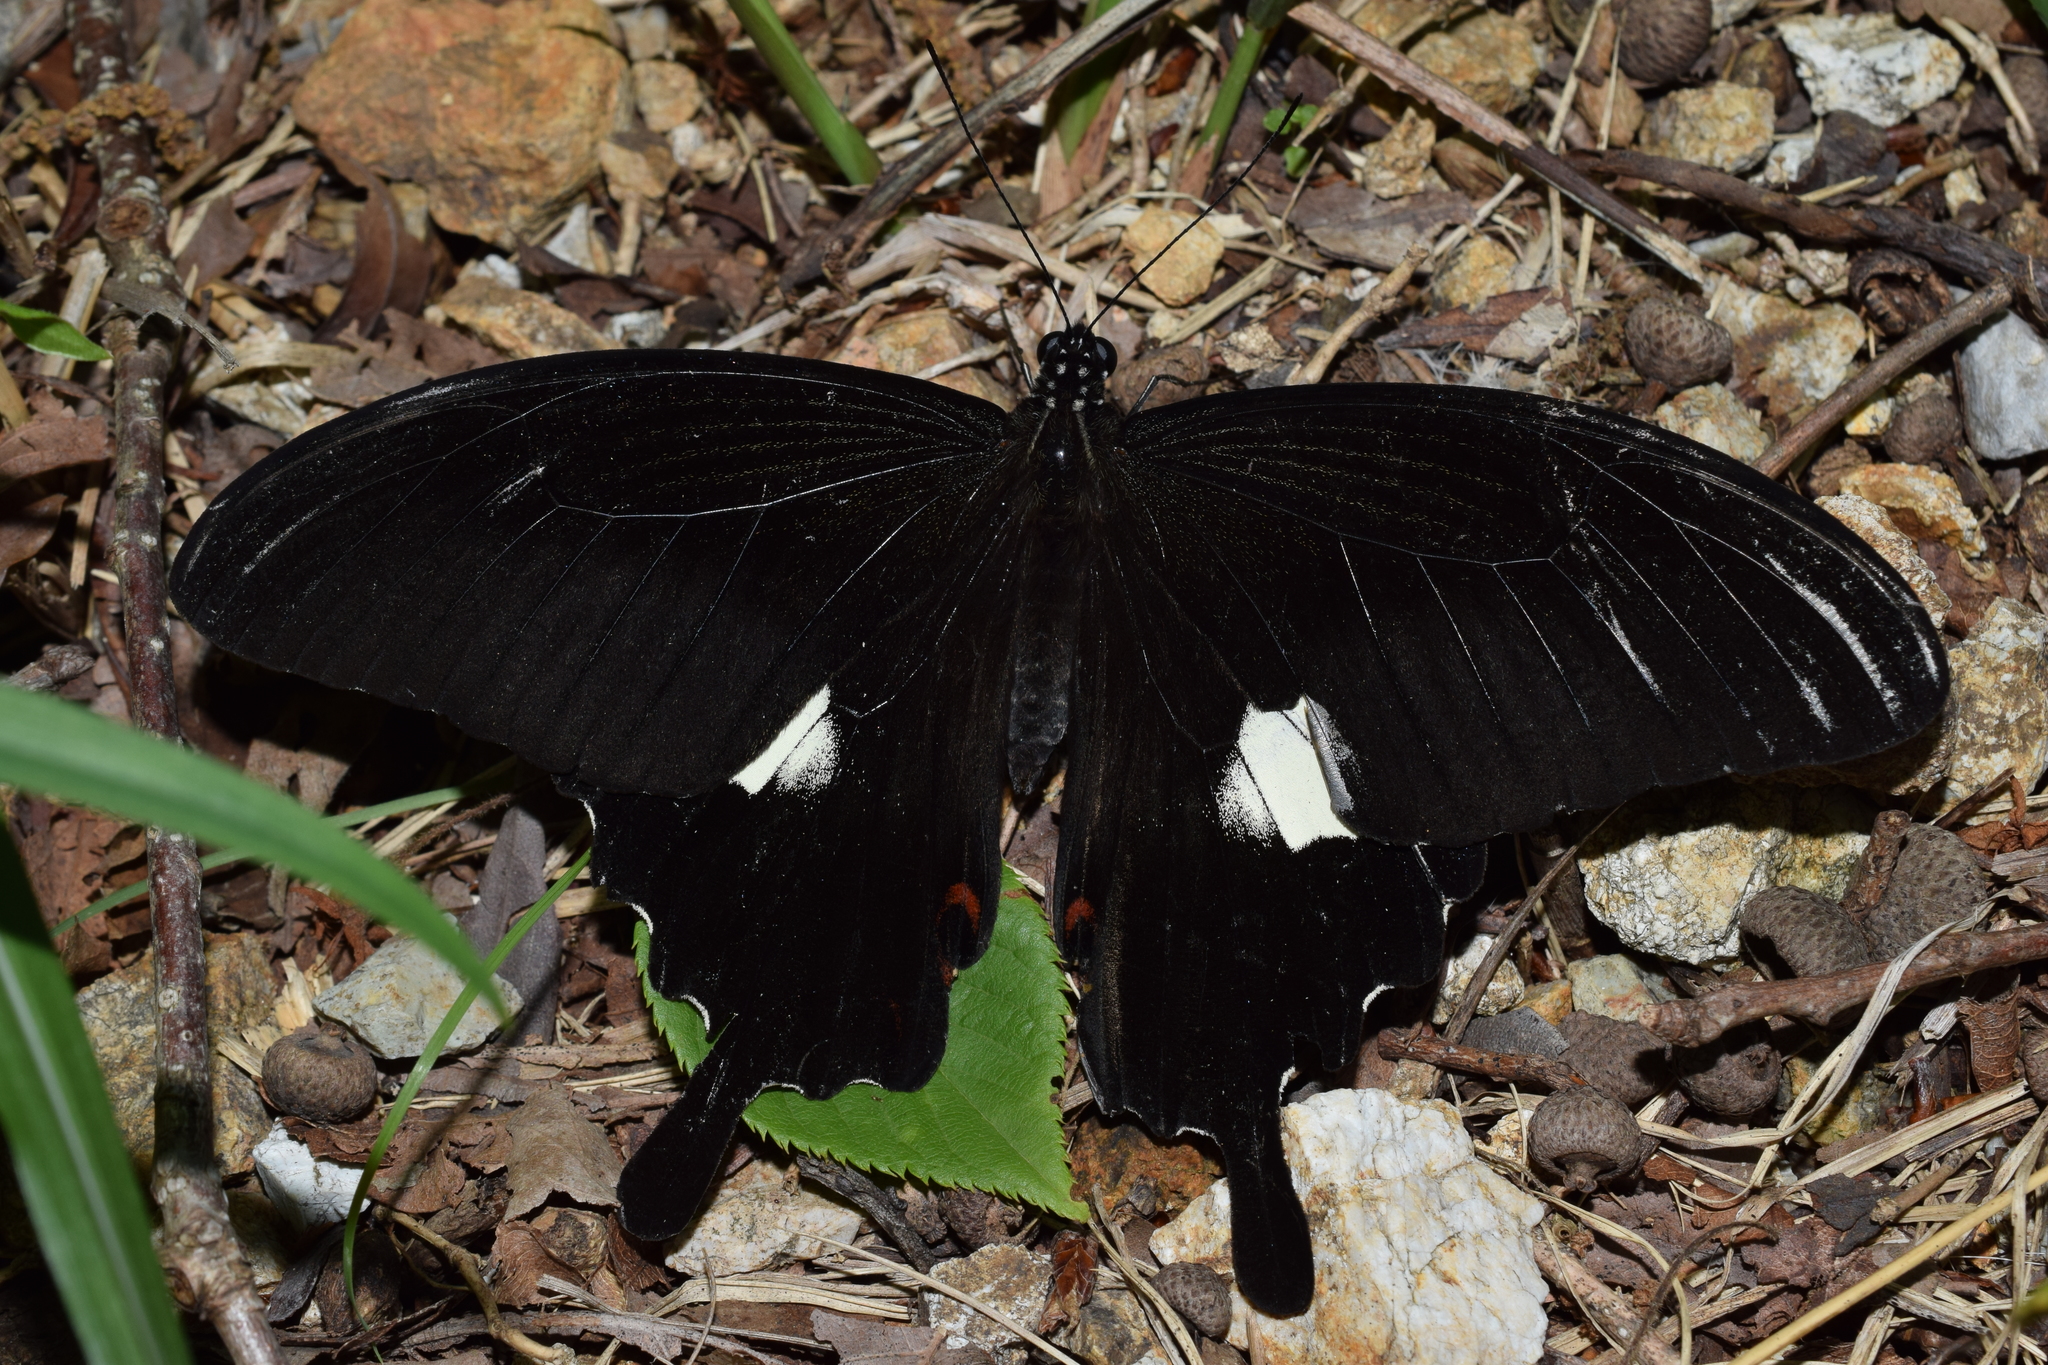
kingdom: Animalia
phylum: Arthropoda
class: Insecta
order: Lepidoptera
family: Papilionidae
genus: Papilio
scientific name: Papilio helenus
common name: Red helen
